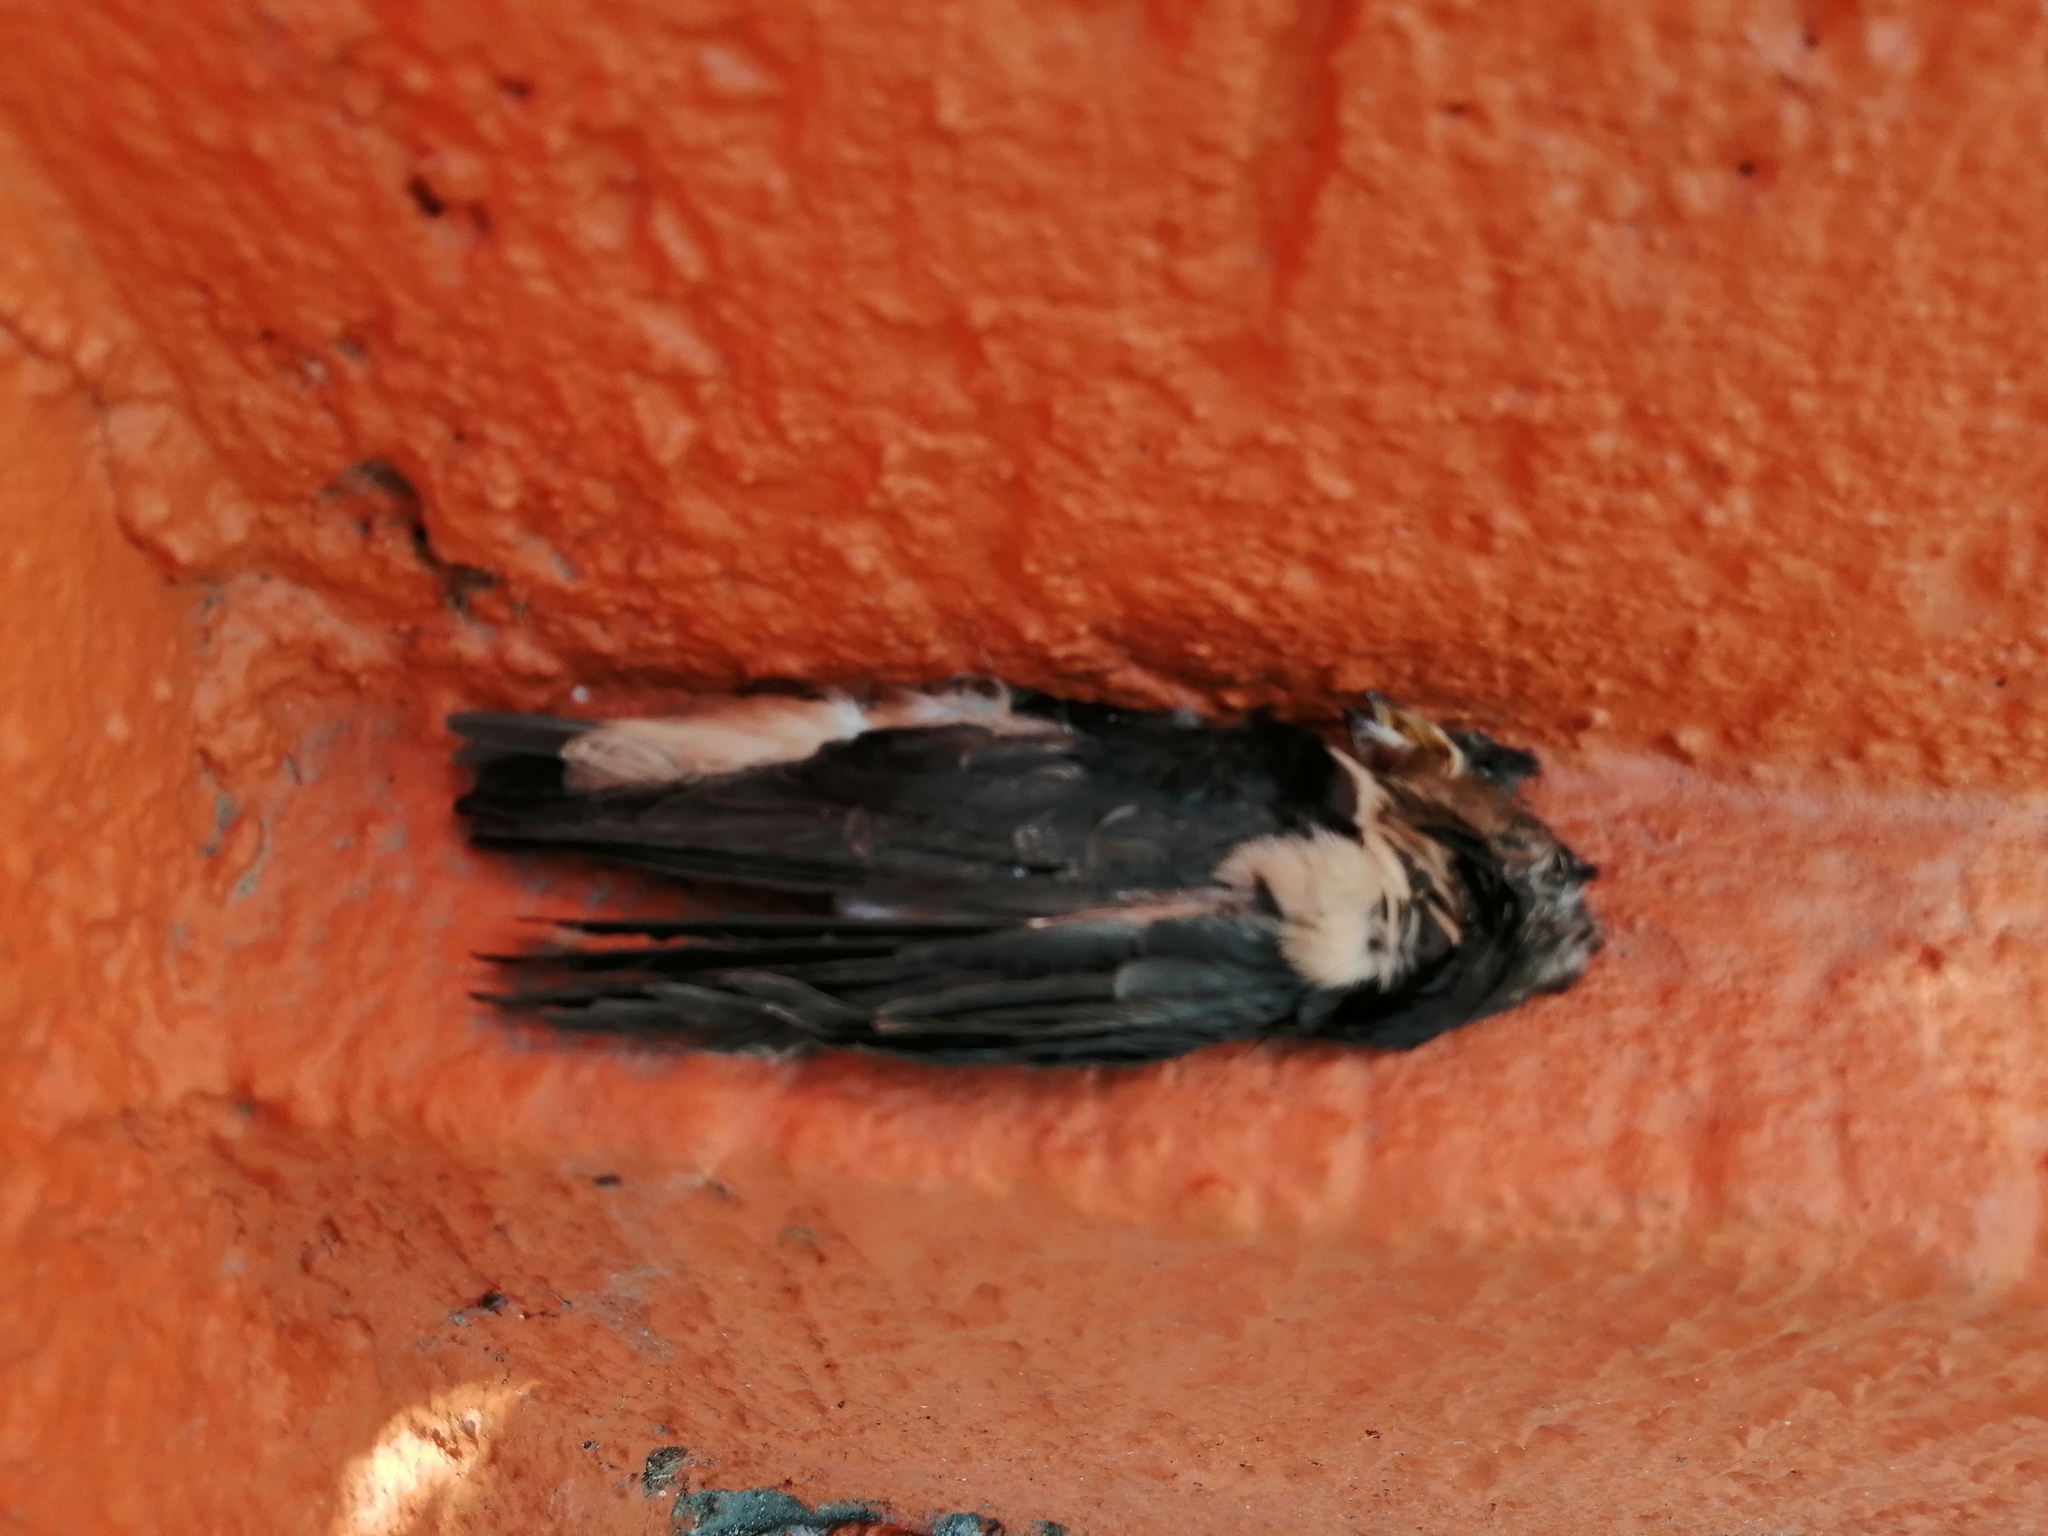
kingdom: Animalia
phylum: Chordata
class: Aves
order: Passeriformes
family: Hirundinidae
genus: Hirundo
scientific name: Hirundo rustica
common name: Barn swallow
